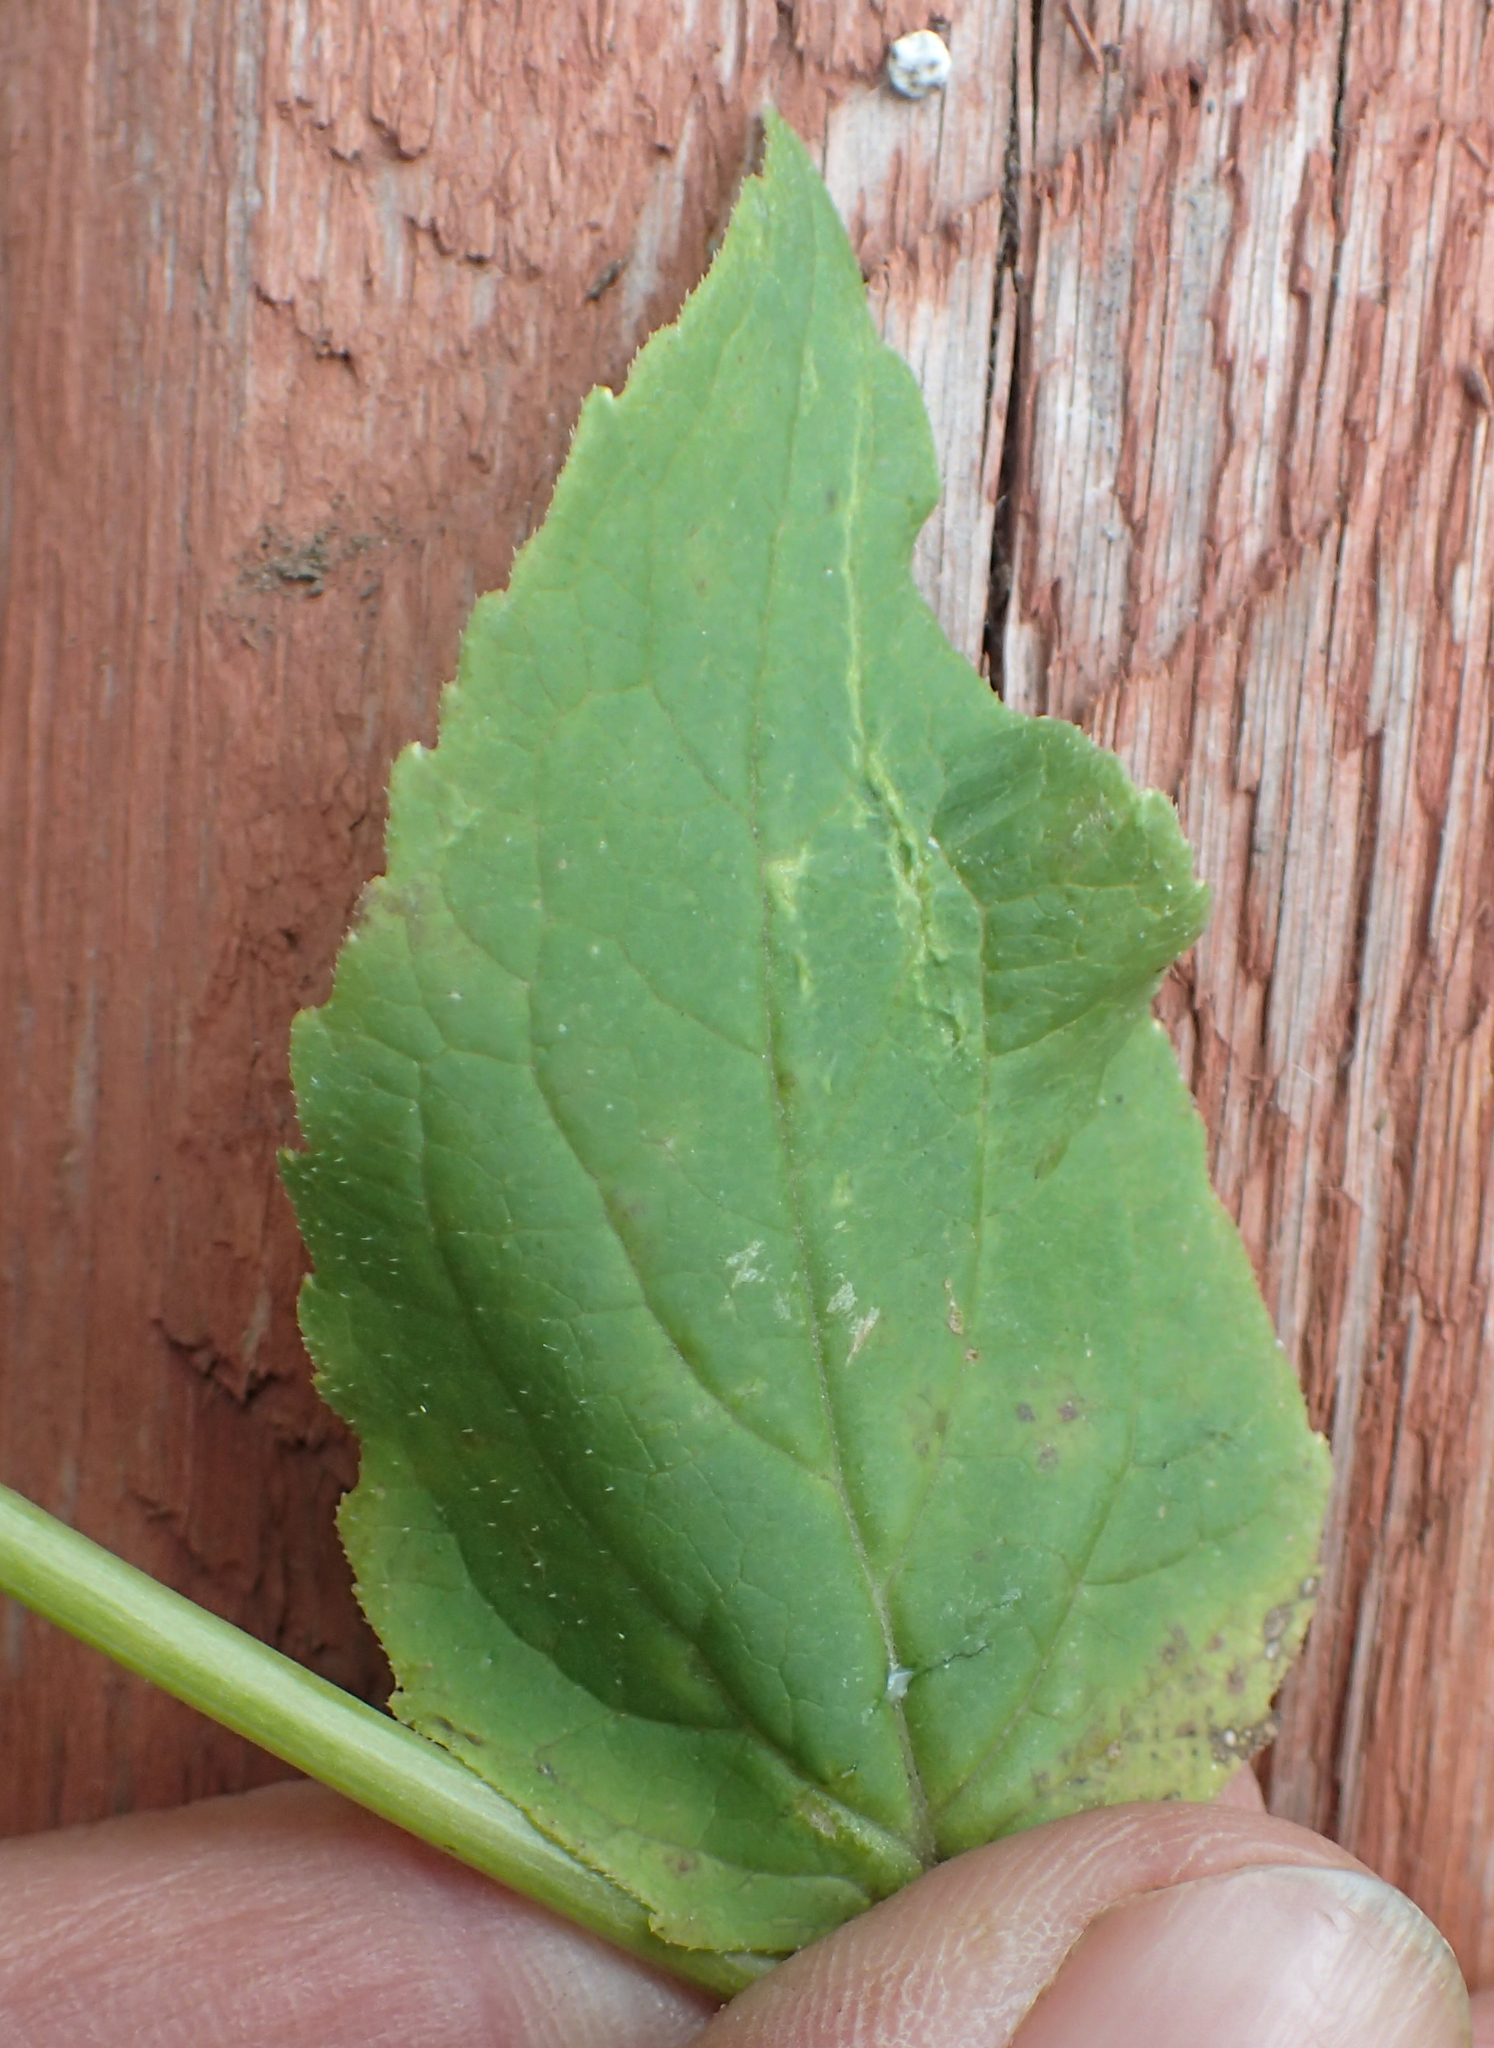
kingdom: Plantae
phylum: Tracheophyta
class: Magnoliopsida
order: Asterales
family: Campanulaceae
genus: Campanula
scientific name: Campanula rapunculoides
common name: Creeping bellflower
